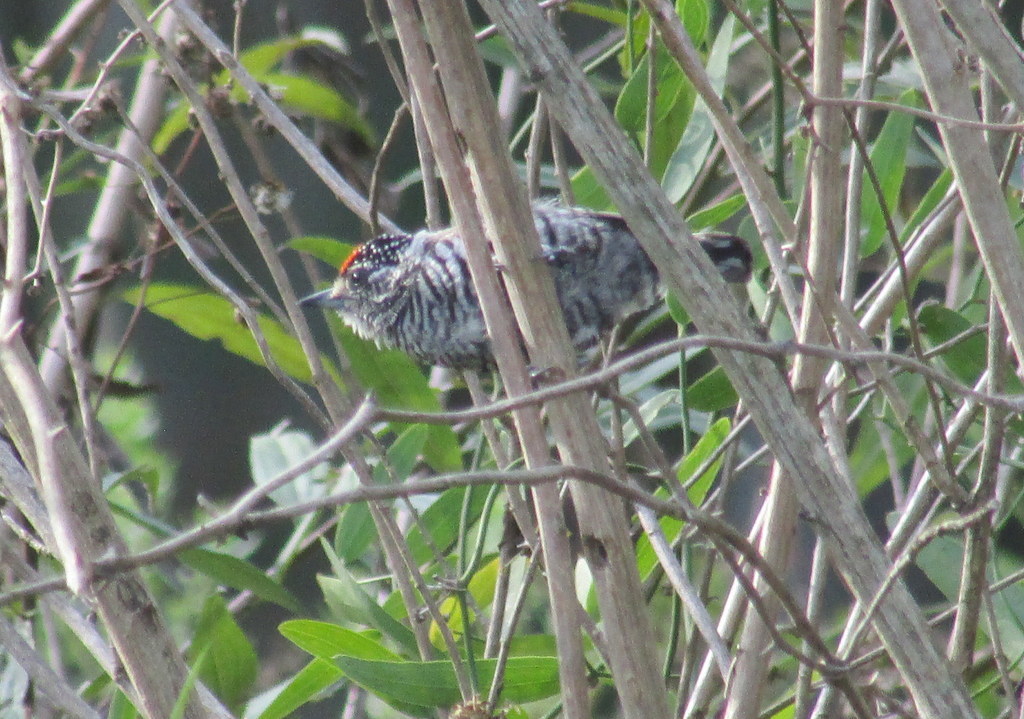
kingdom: Animalia
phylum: Chordata
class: Aves
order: Piciformes
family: Picidae
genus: Picumnus
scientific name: Picumnus cirratus
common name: White-barred piculet
